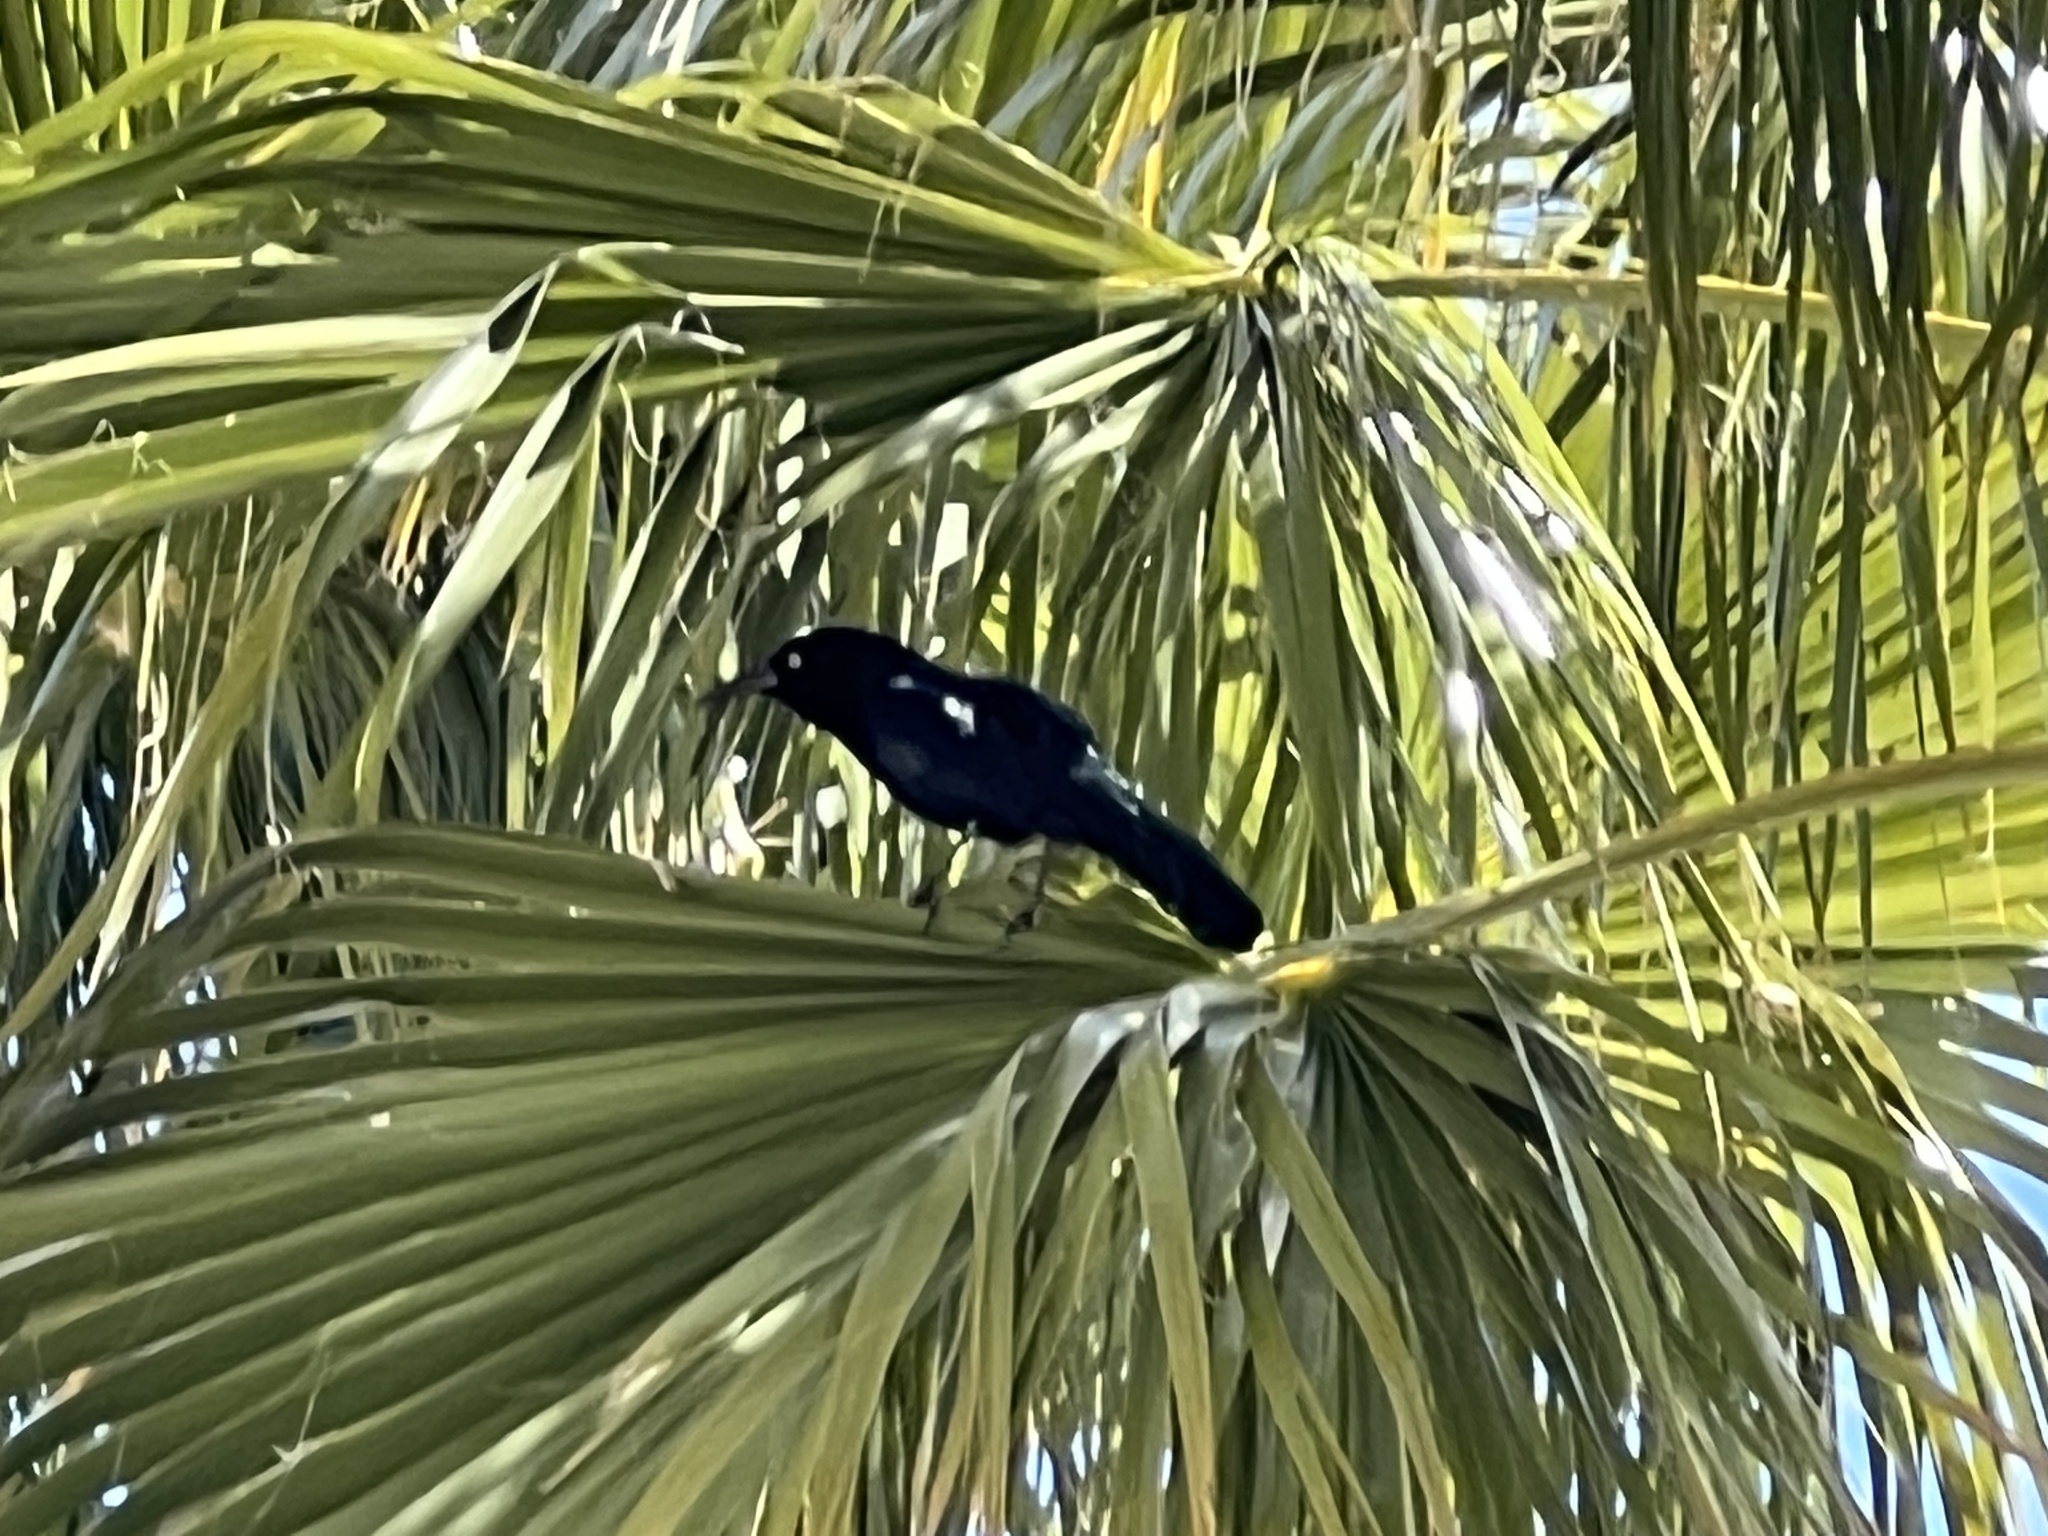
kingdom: Animalia
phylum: Chordata
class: Aves
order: Passeriformes
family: Icteridae
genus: Quiscalus
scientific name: Quiscalus mexicanus
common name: Great-tailed grackle
